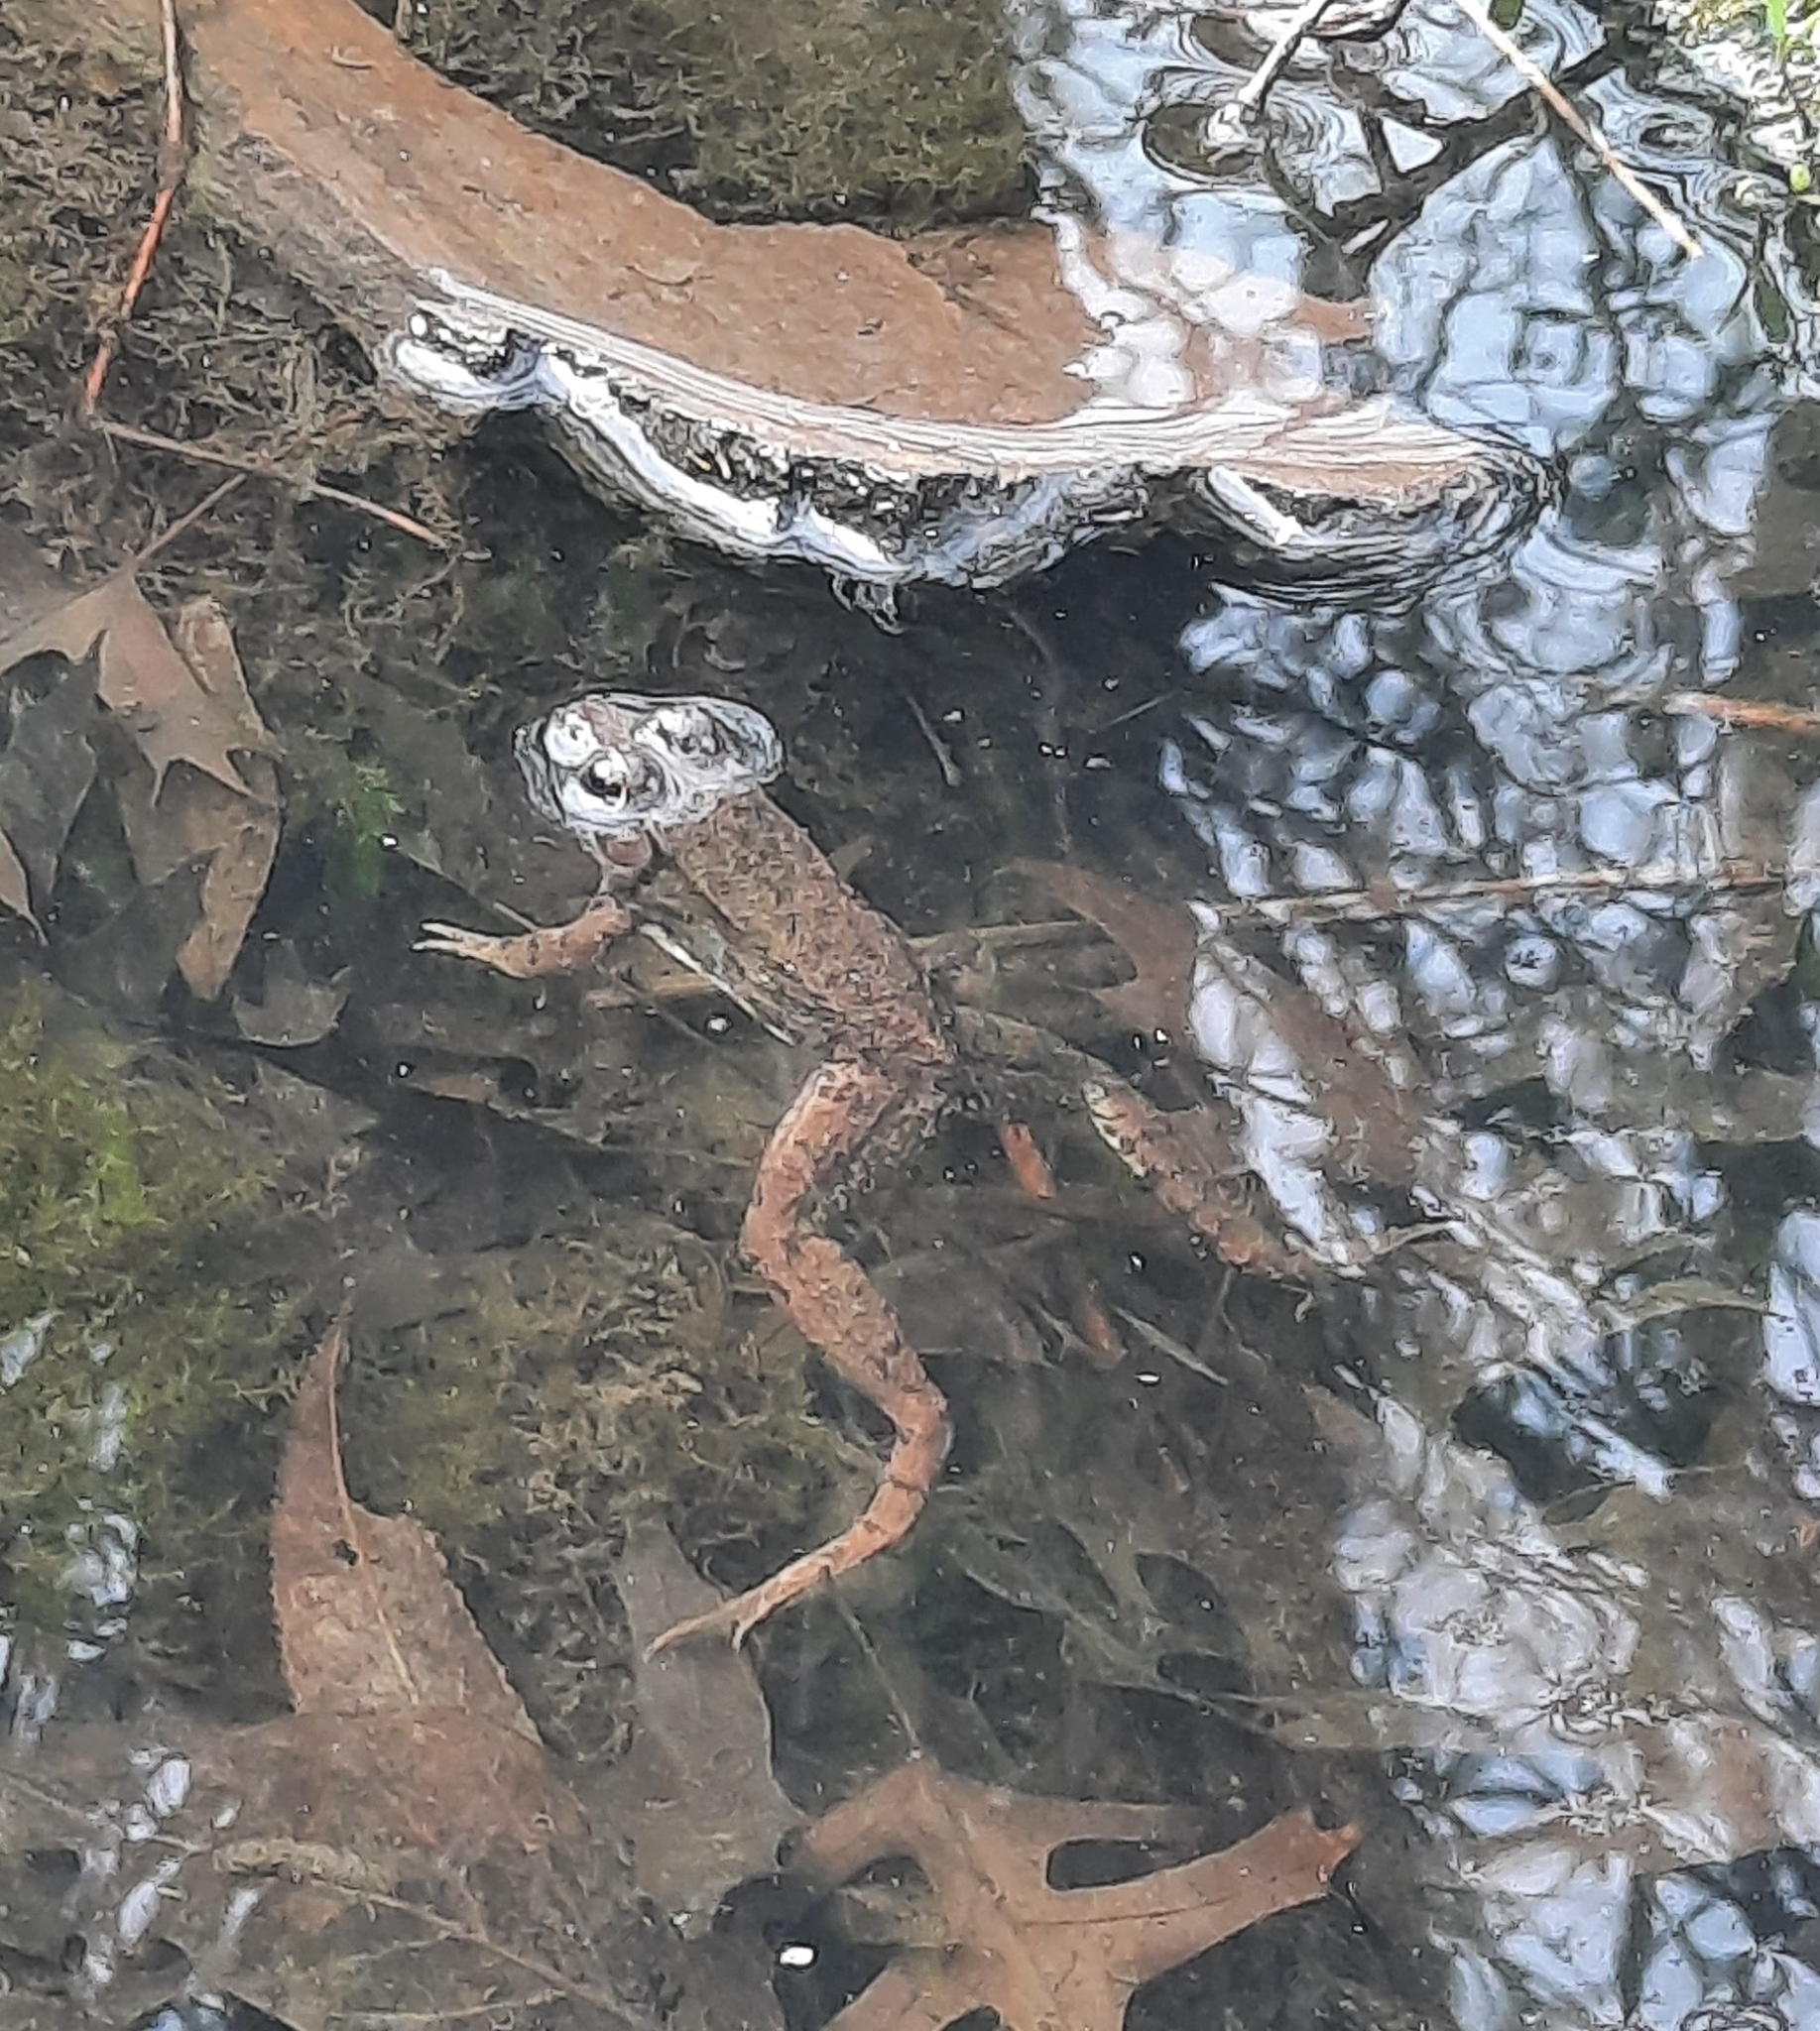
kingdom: Animalia
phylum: Chordata
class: Amphibia
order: Anura
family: Ranidae
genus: Lithobates
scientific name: Lithobates clamitans
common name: Green frog
